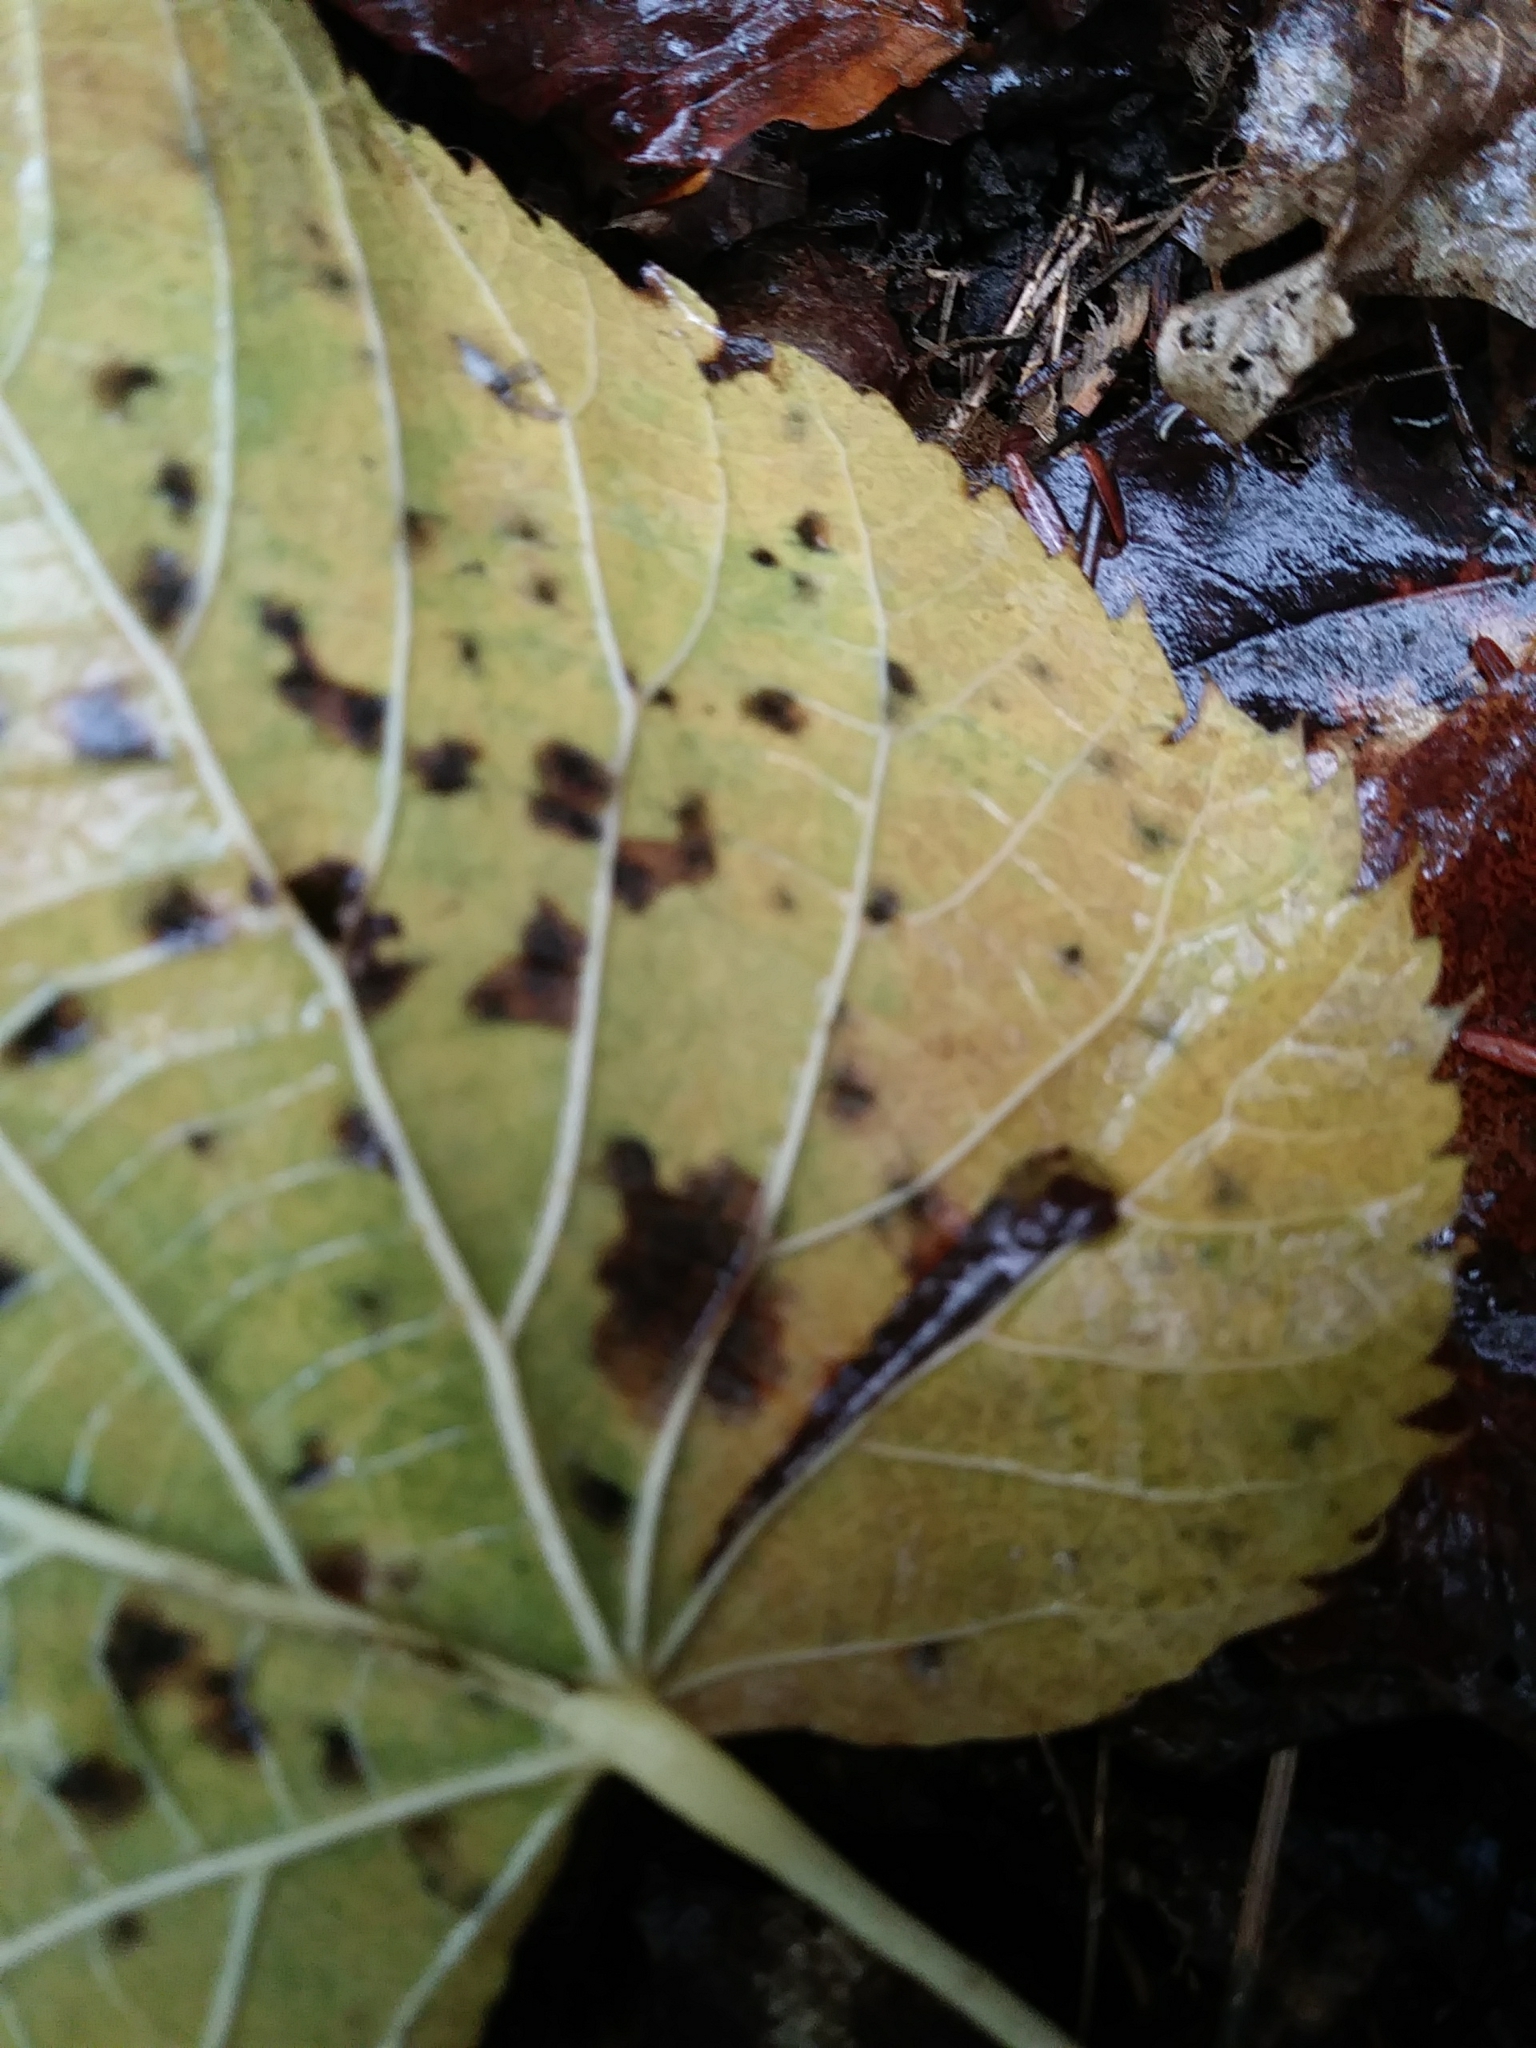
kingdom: Plantae
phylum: Tracheophyta
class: Magnoliopsida
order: Malvales
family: Malvaceae
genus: Tilia
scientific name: Tilia americana
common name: Basswood
